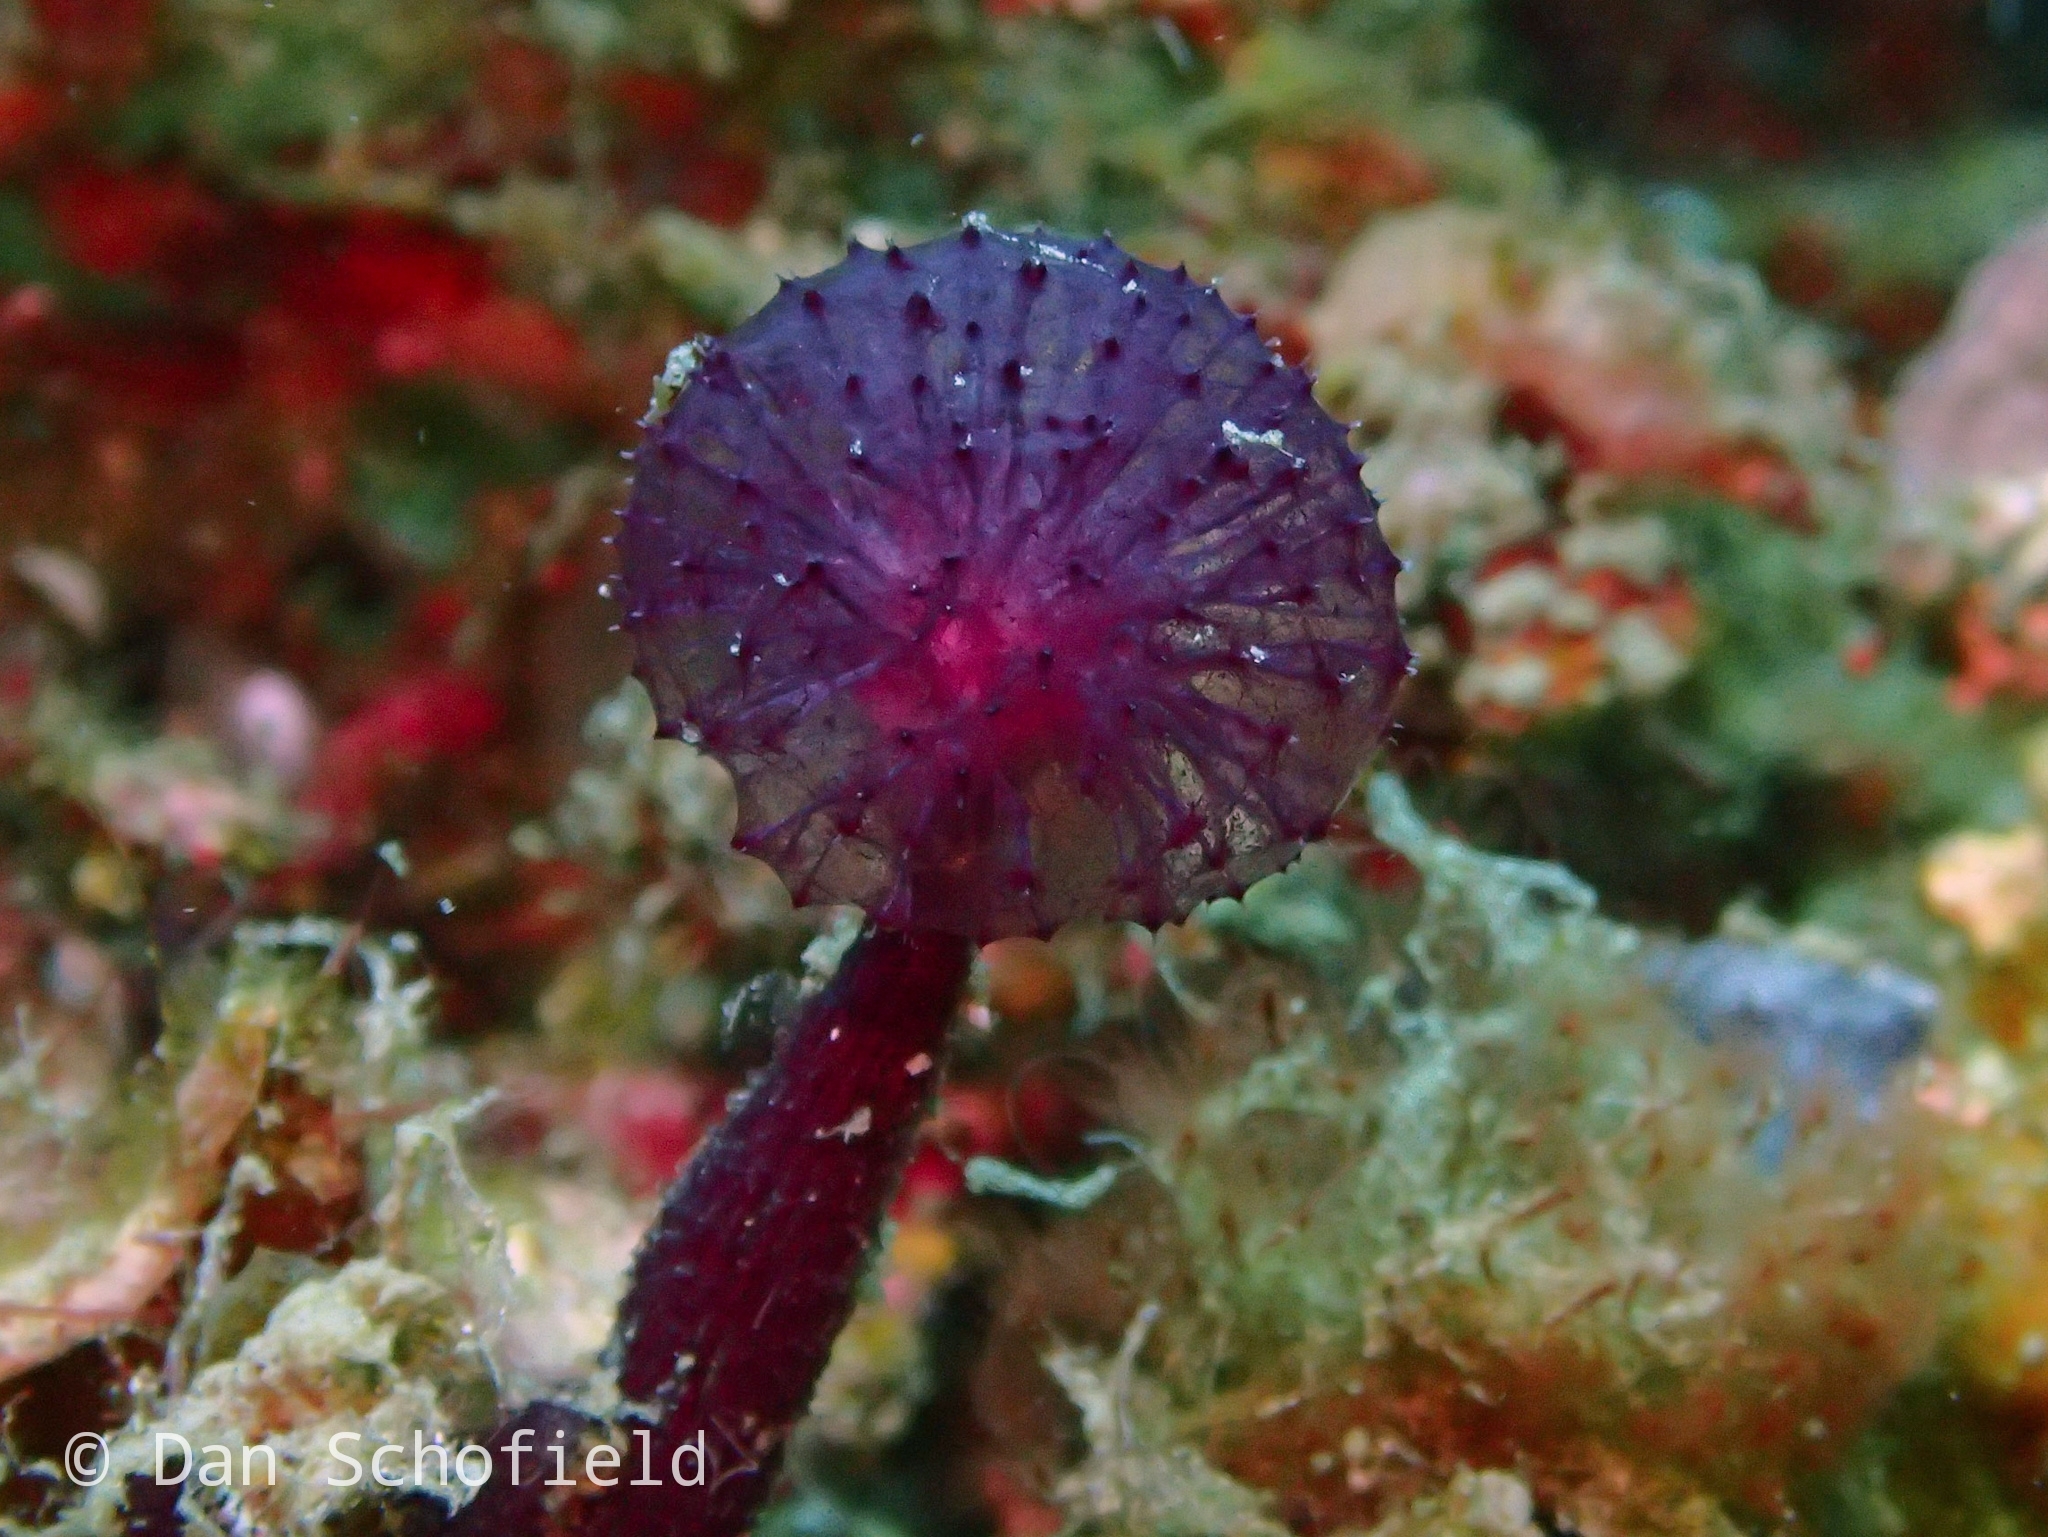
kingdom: Animalia
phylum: Porifera
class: Demospongiae
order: Haplosclerida
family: Phloeodictyidae
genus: Oceanapia
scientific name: Oceanapia sagittaria
